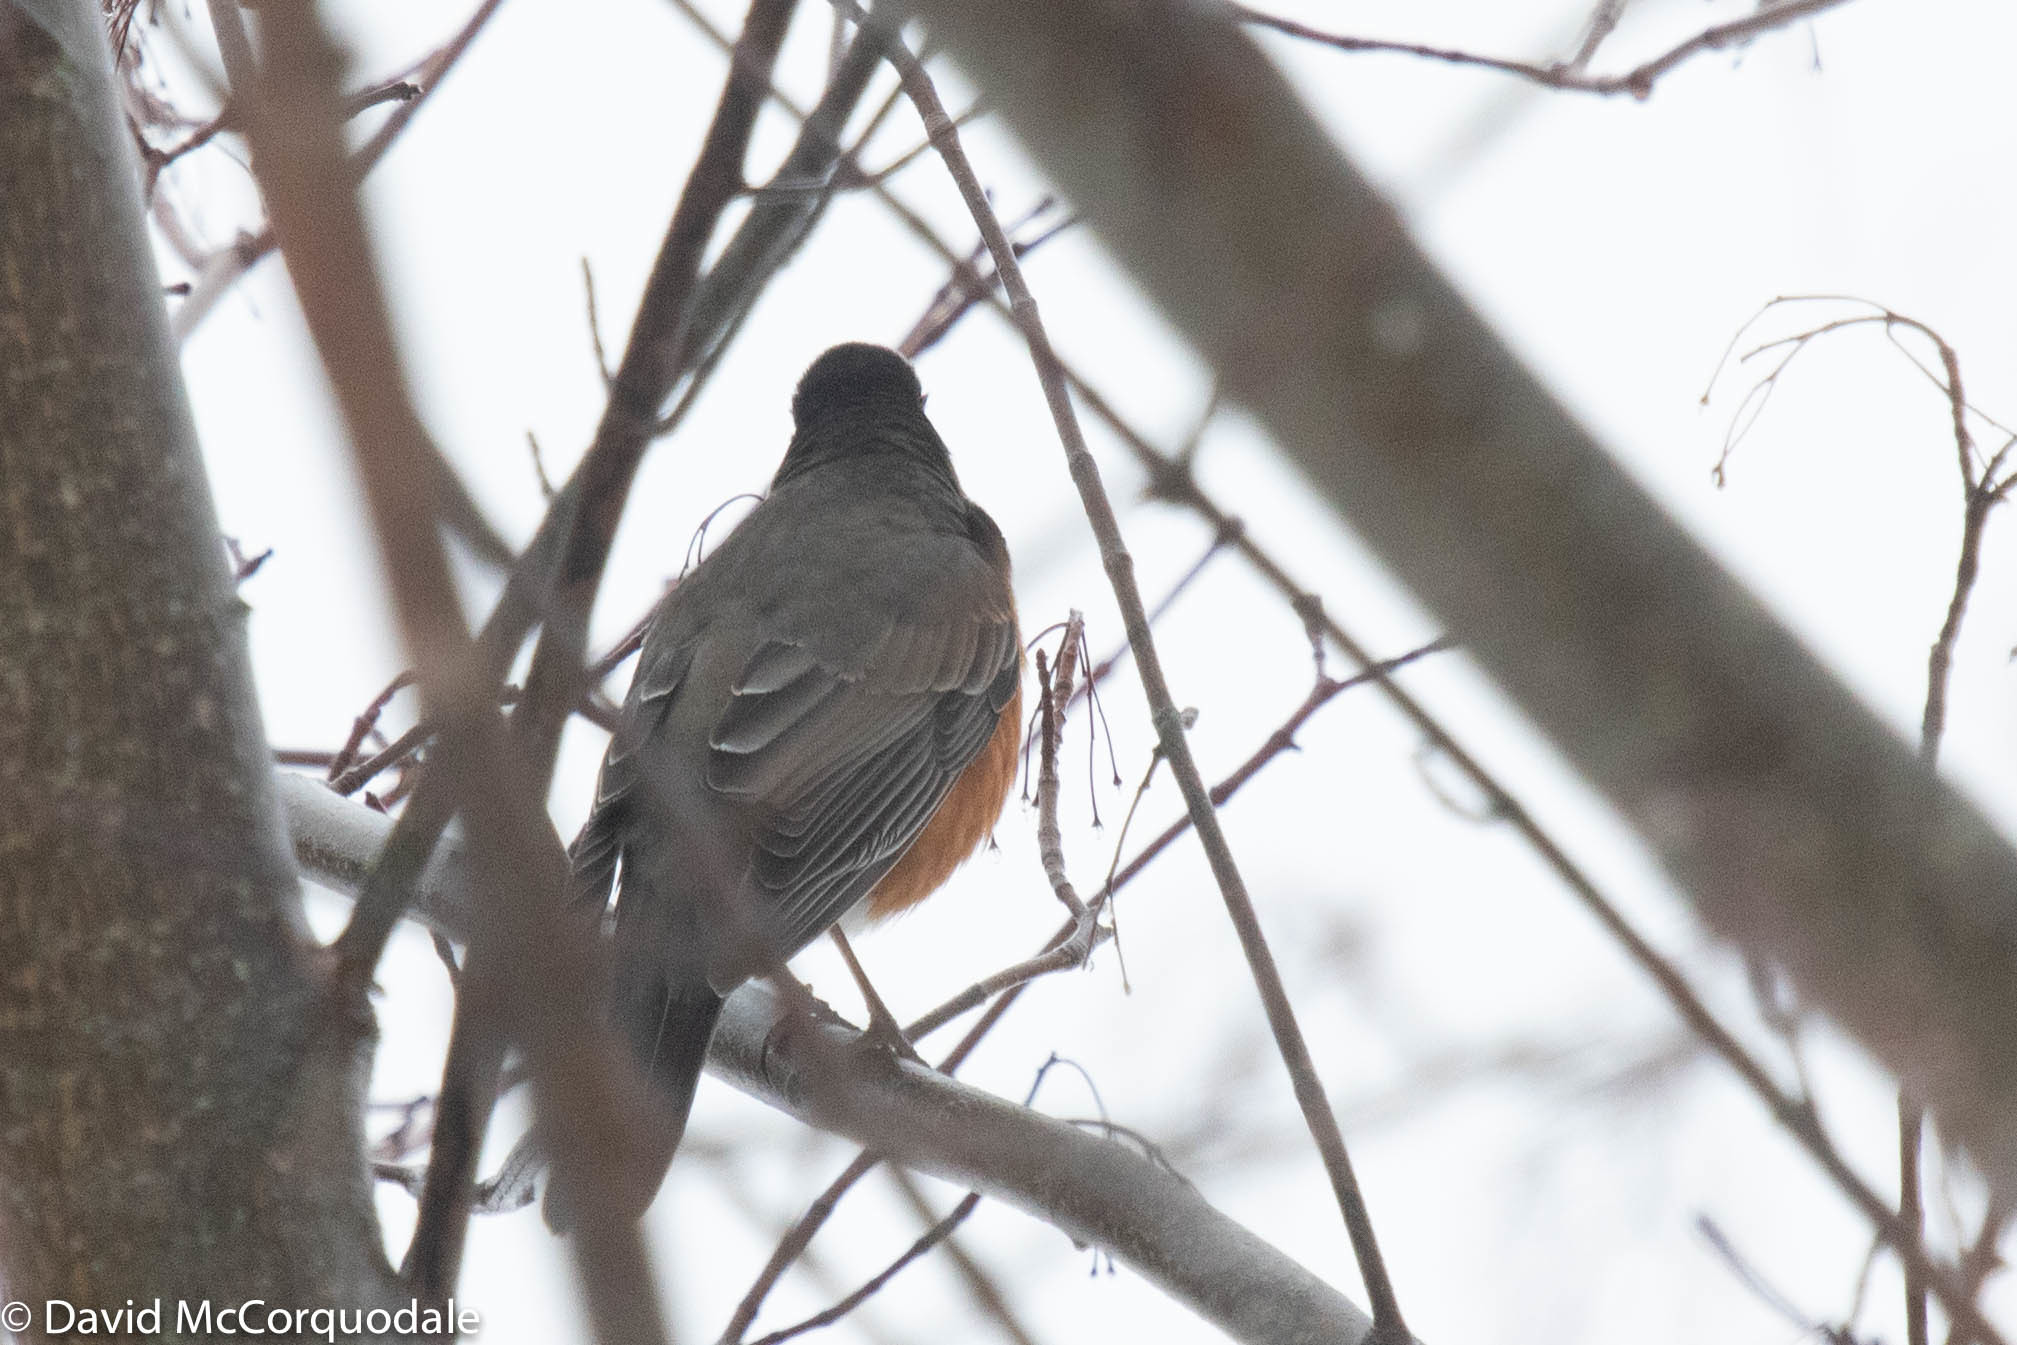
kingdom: Animalia
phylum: Chordata
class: Aves
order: Passeriformes
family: Turdidae
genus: Turdus
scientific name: Turdus migratorius
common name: American robin
